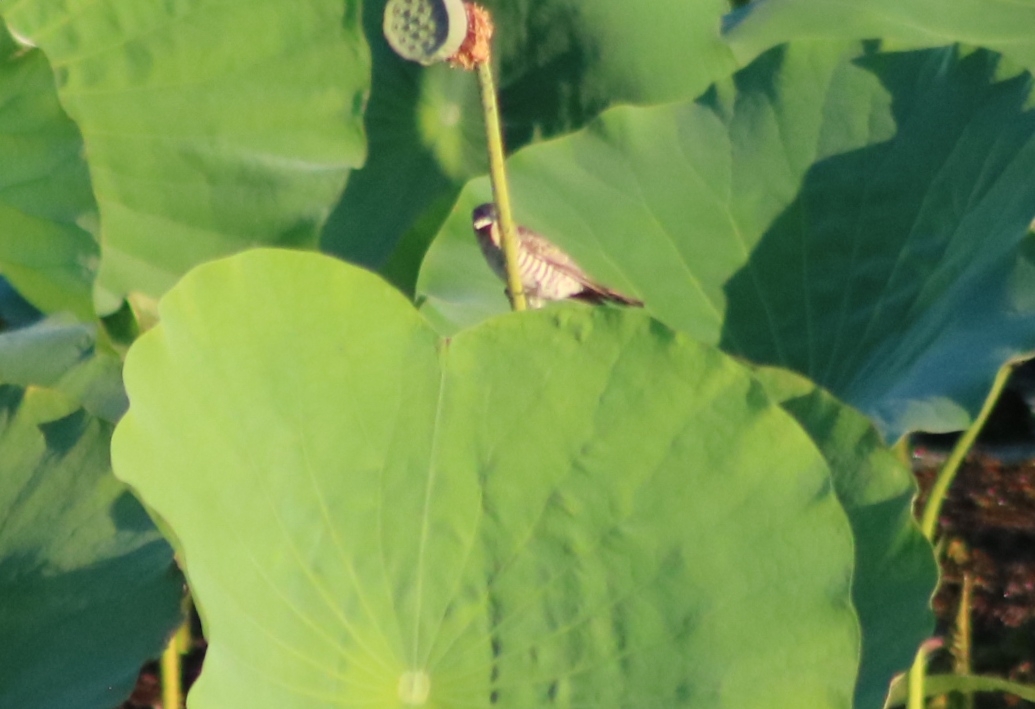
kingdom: Animalia
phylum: Chordata
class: Aves
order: Cuculiformes
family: Cuculidae
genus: Chrysococcyx
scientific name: Chrysococcyx basalis
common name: Horsfield's bronze cuckoo
